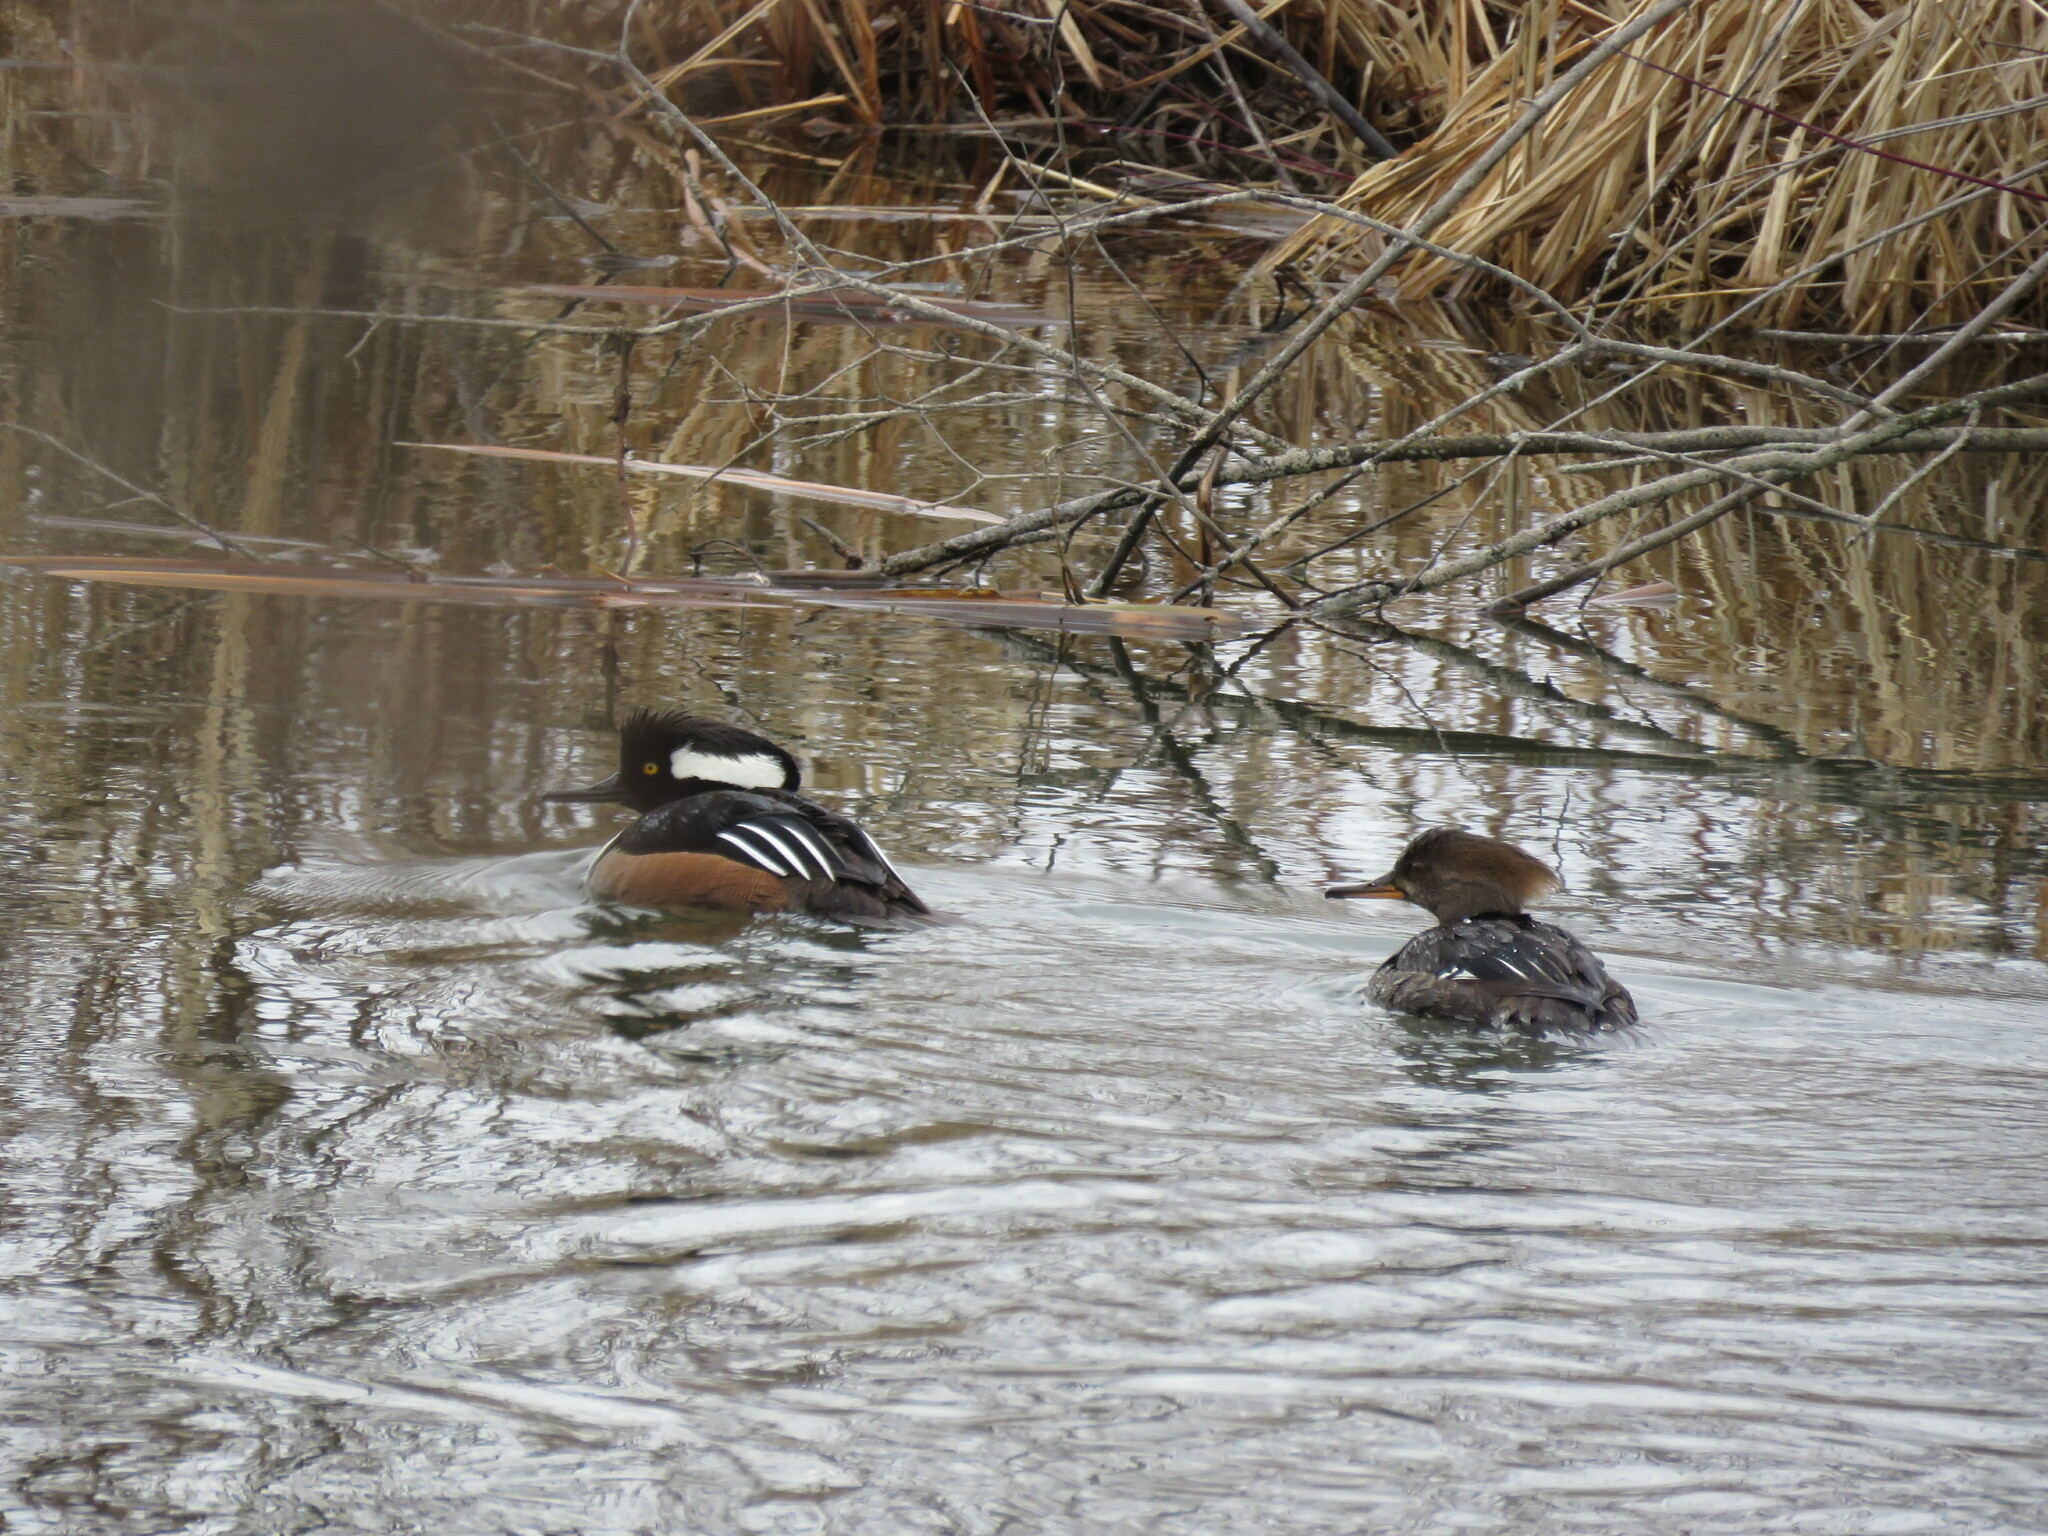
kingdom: Animalia
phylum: Chordata
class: Aves
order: Anseriformes
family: Anatidae
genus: Lophodytes
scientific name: Lophodytes cucullatus
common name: Hooded merganser
